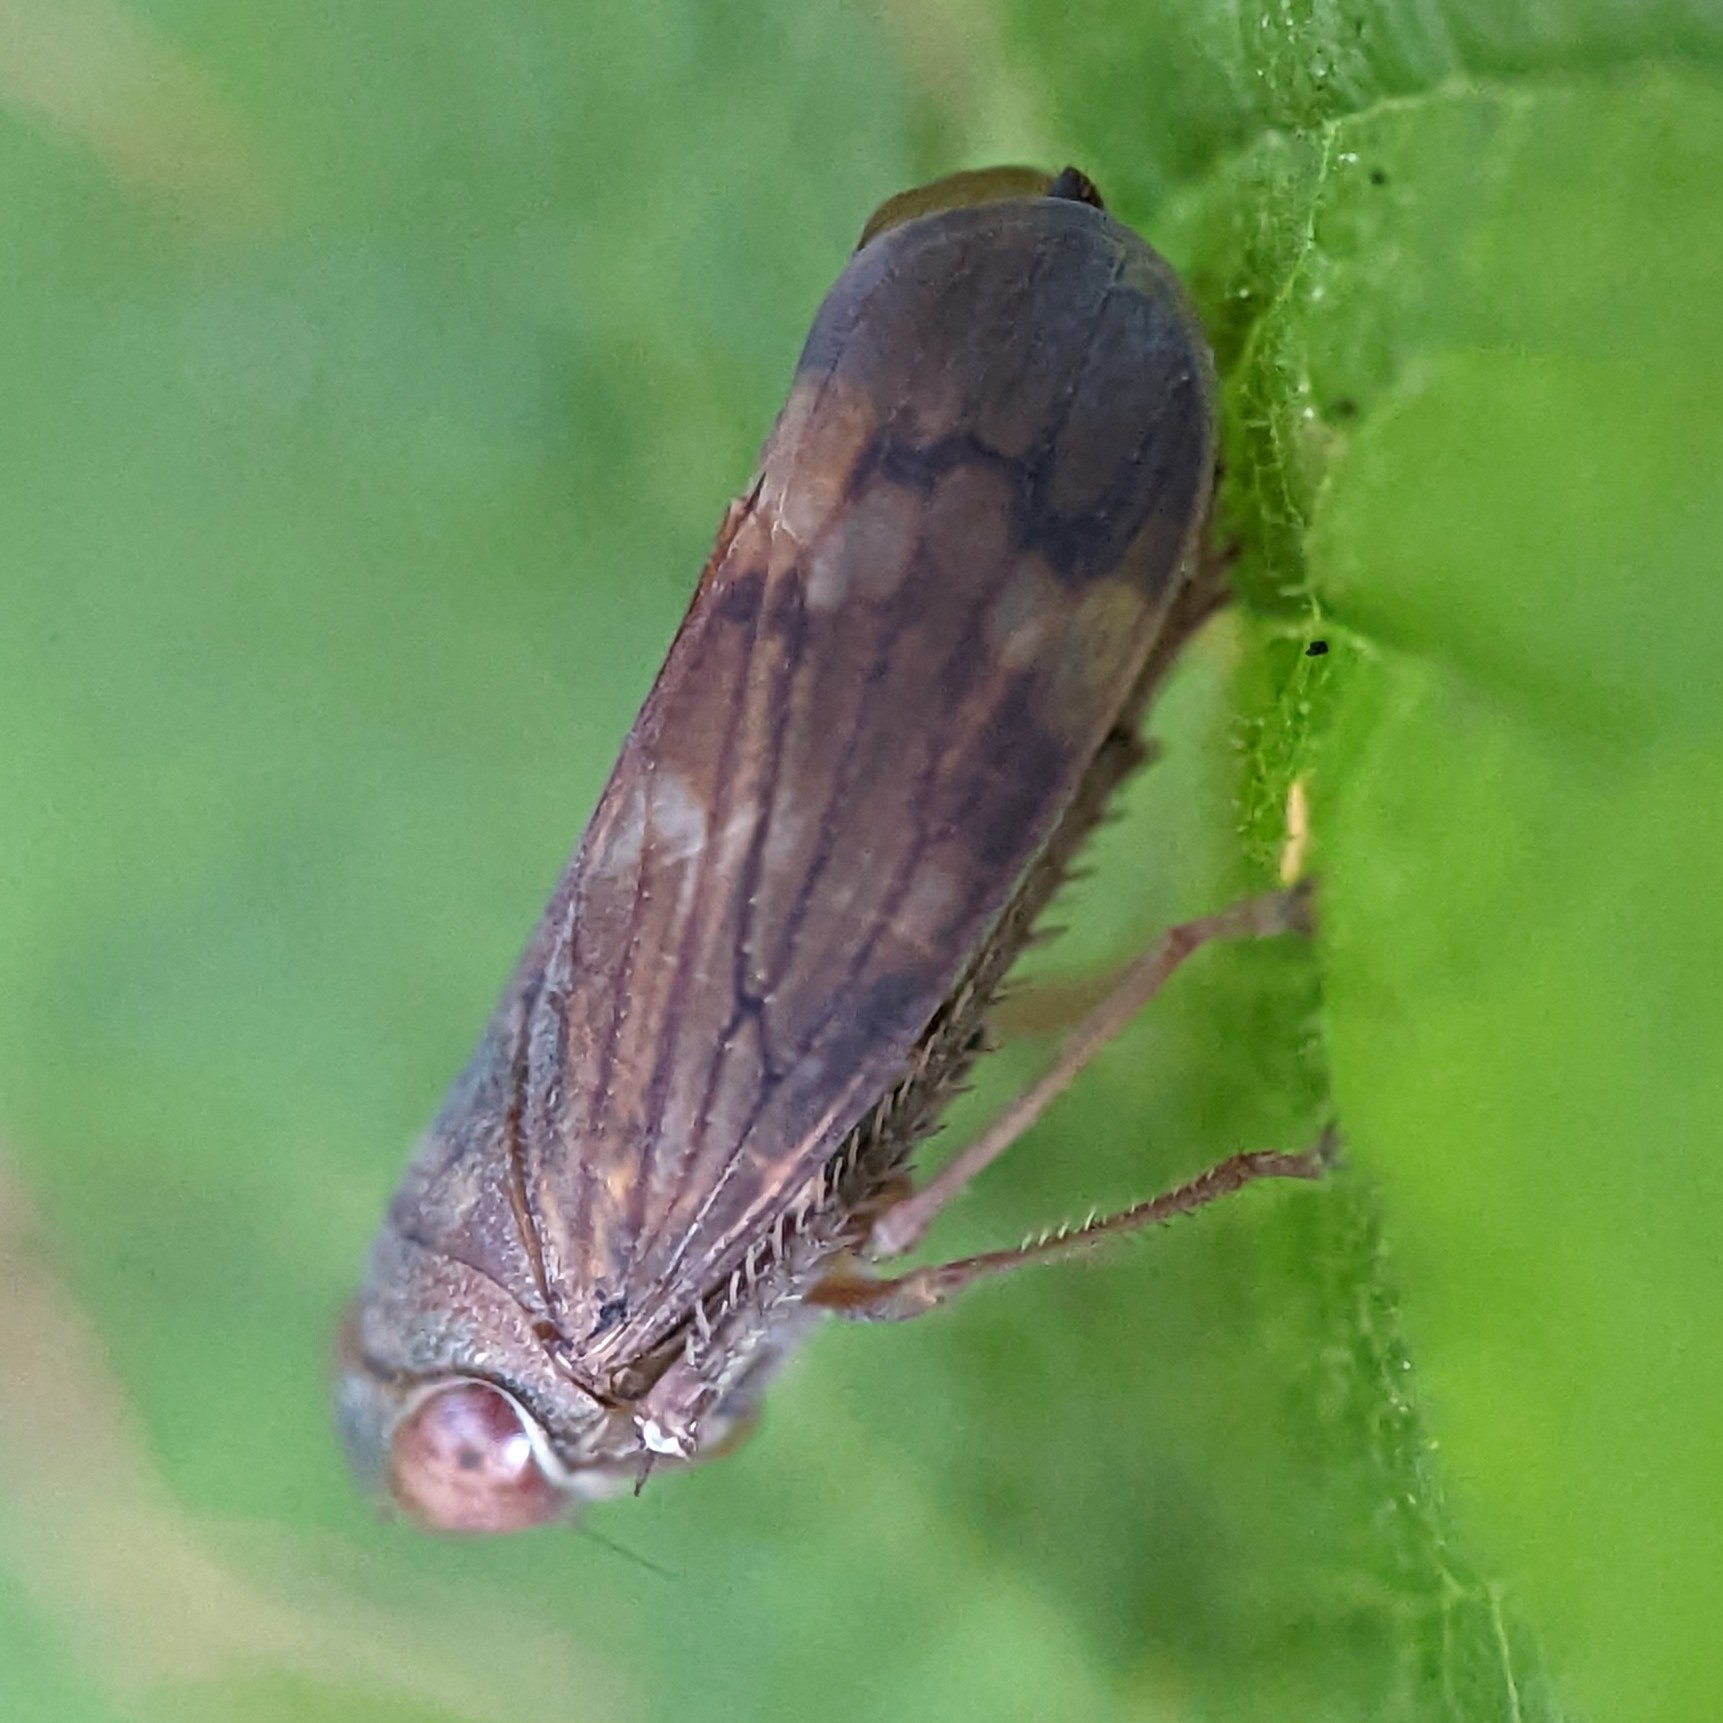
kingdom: Animalia
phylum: Arthropoda
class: Insecta
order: Hemiptera
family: Cicadellidae
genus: Jikradia
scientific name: Jikradia olitoria
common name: Coppery leafhopper
